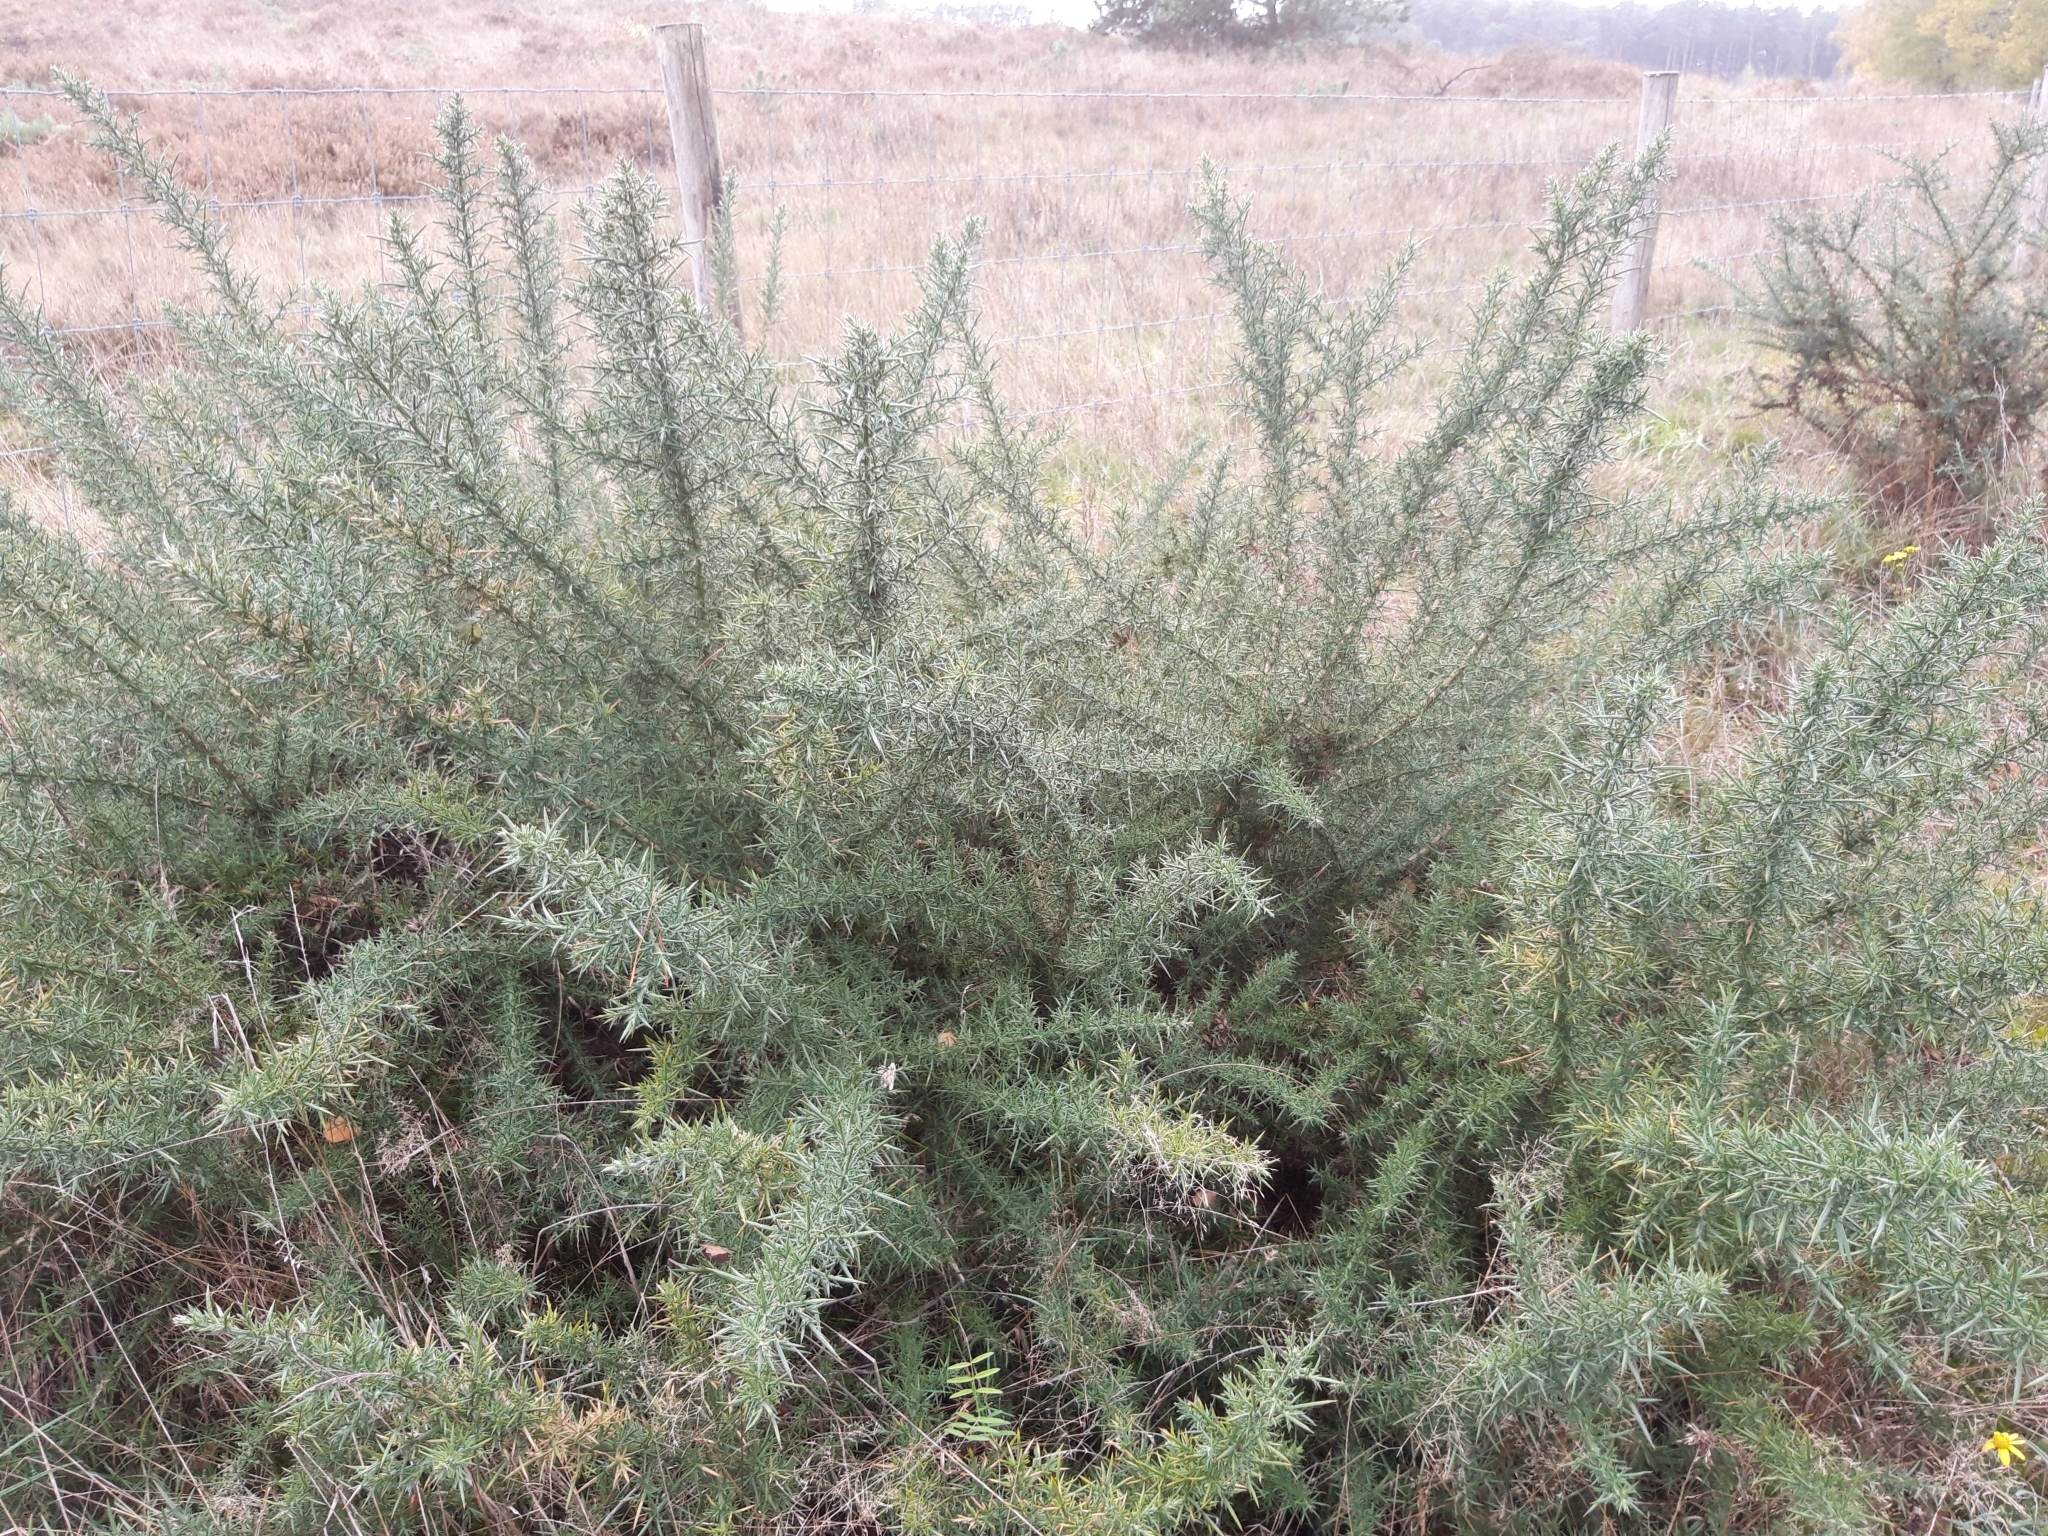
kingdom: Plantae
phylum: Tracheophyta
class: Magnoliopsida
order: Fabales
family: Fabaceae
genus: Ulex
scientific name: Ulex europaeus
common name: Common gorse
